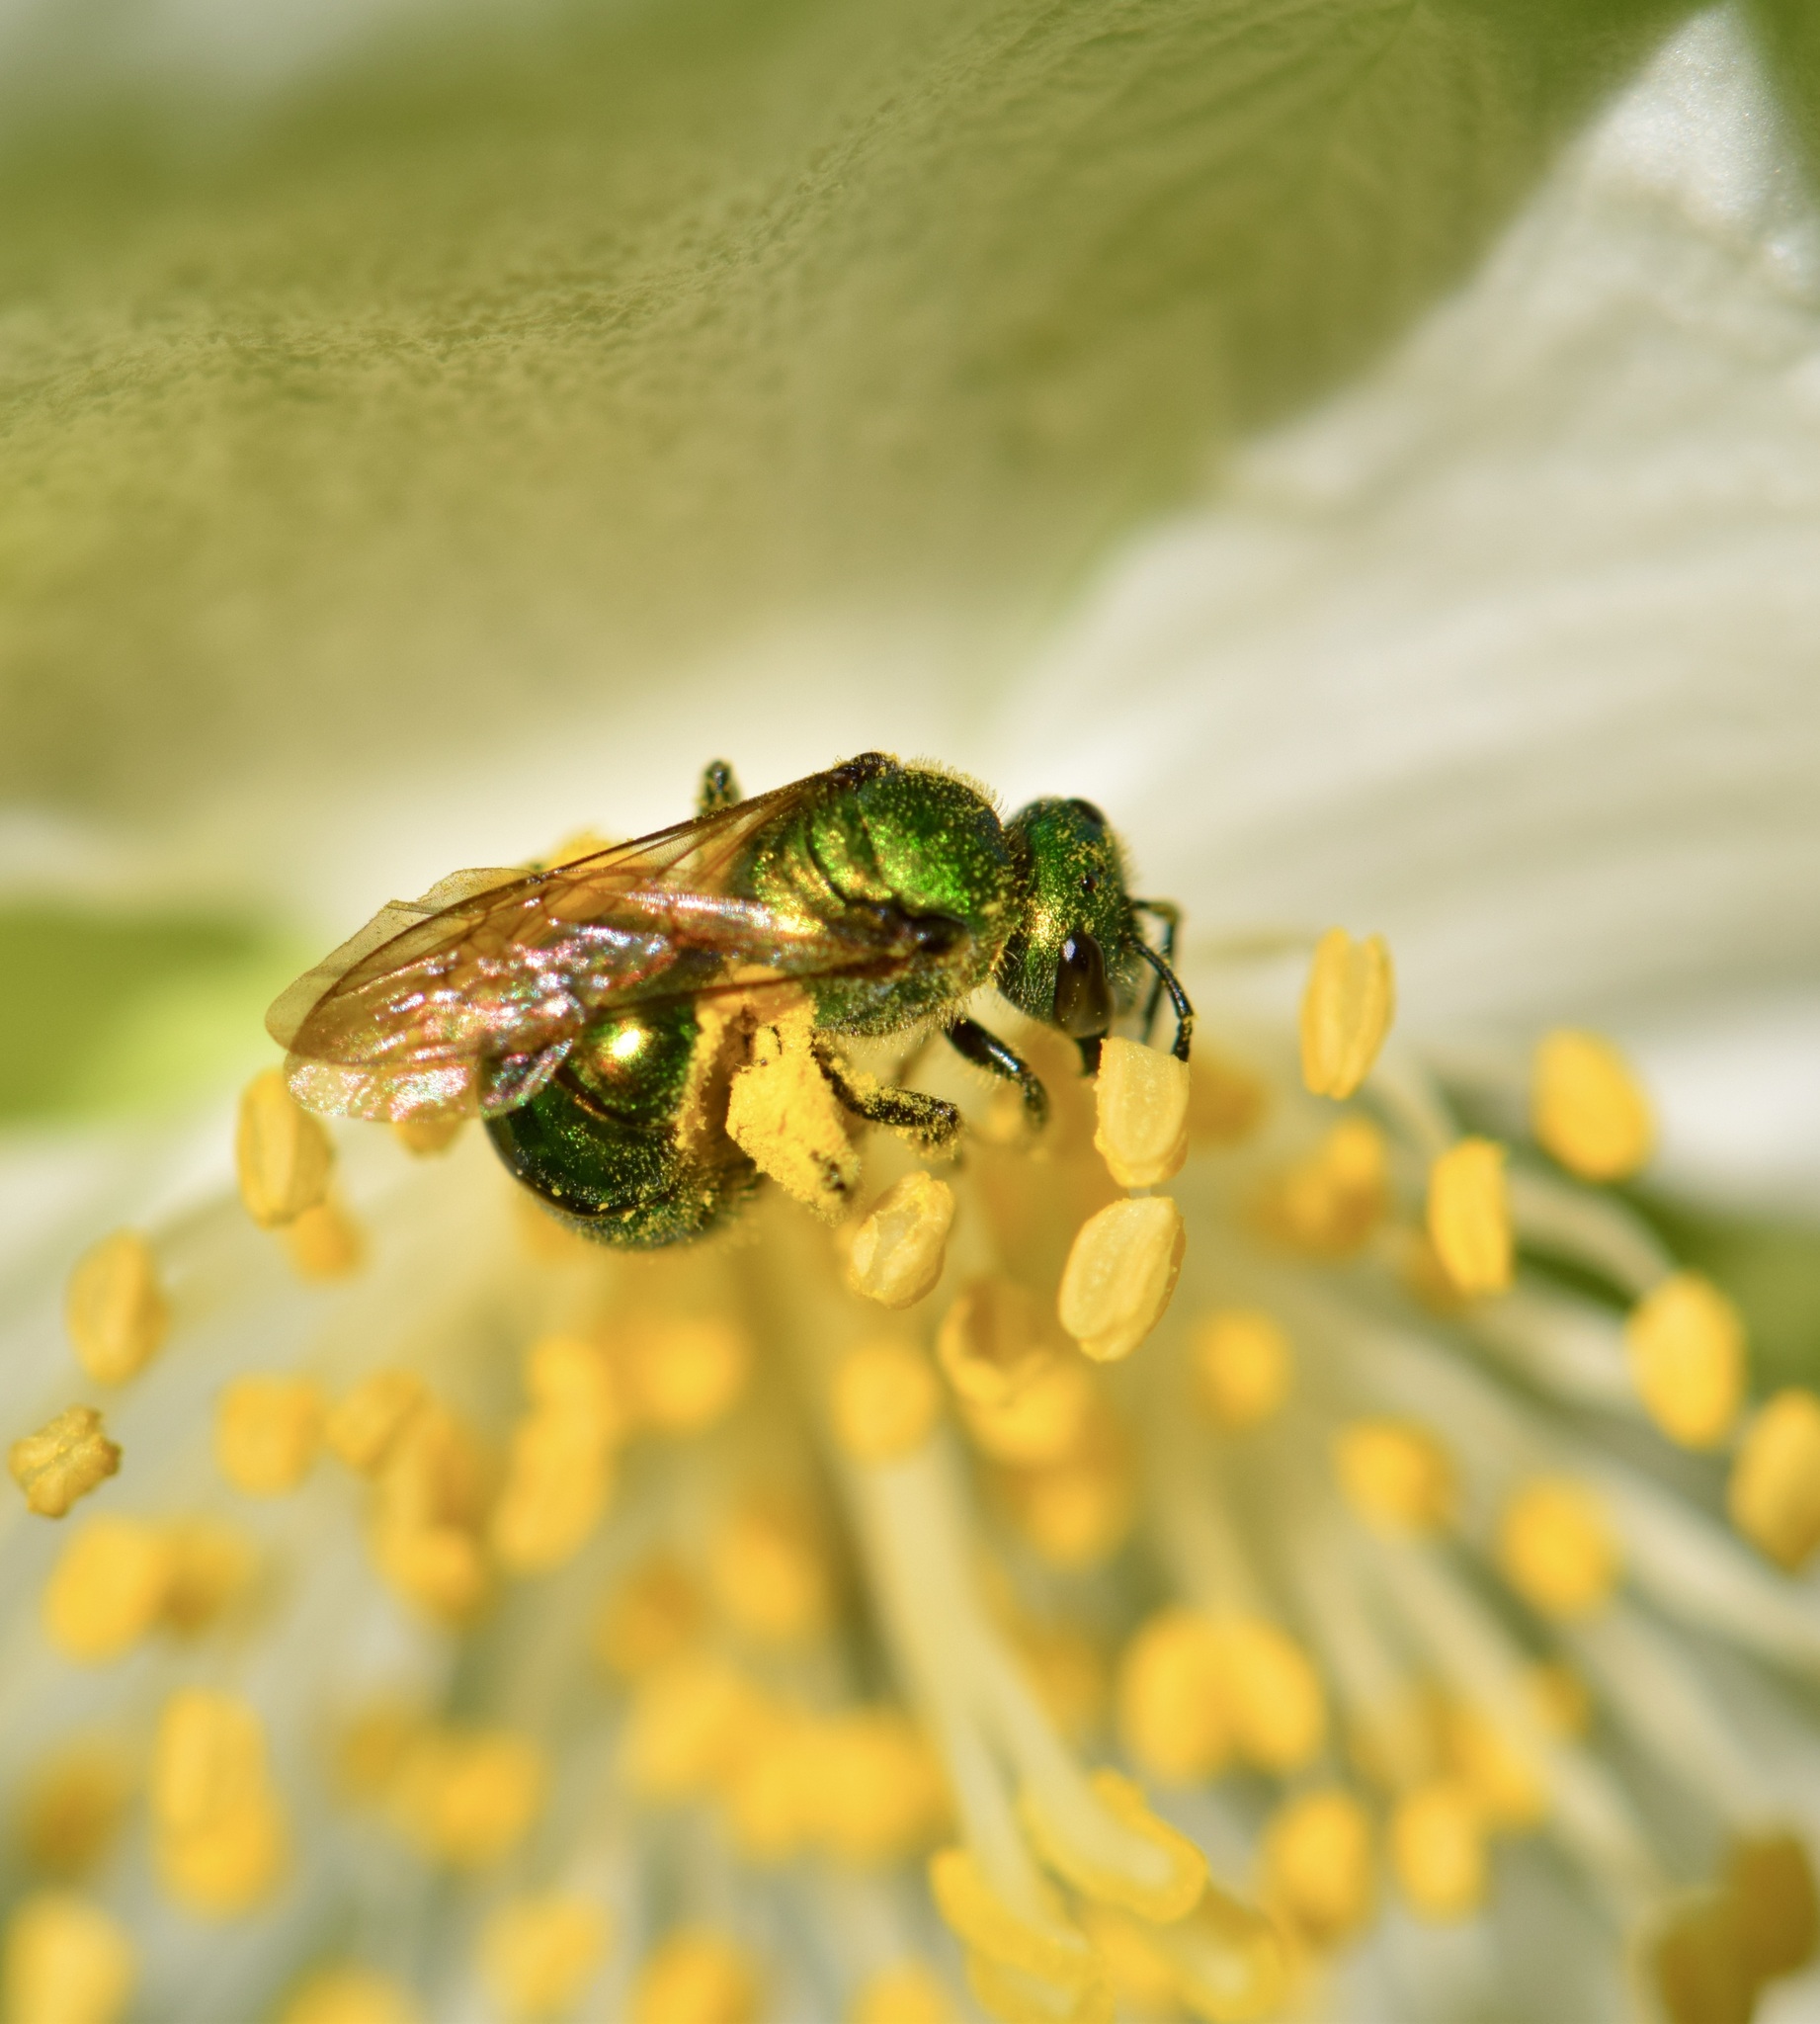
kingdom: Animalia
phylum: Arthropoda
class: Insecta
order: Hymenoptera
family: Halictidae
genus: Augochlora
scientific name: Augochlora pura
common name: Pure green sweat bee
